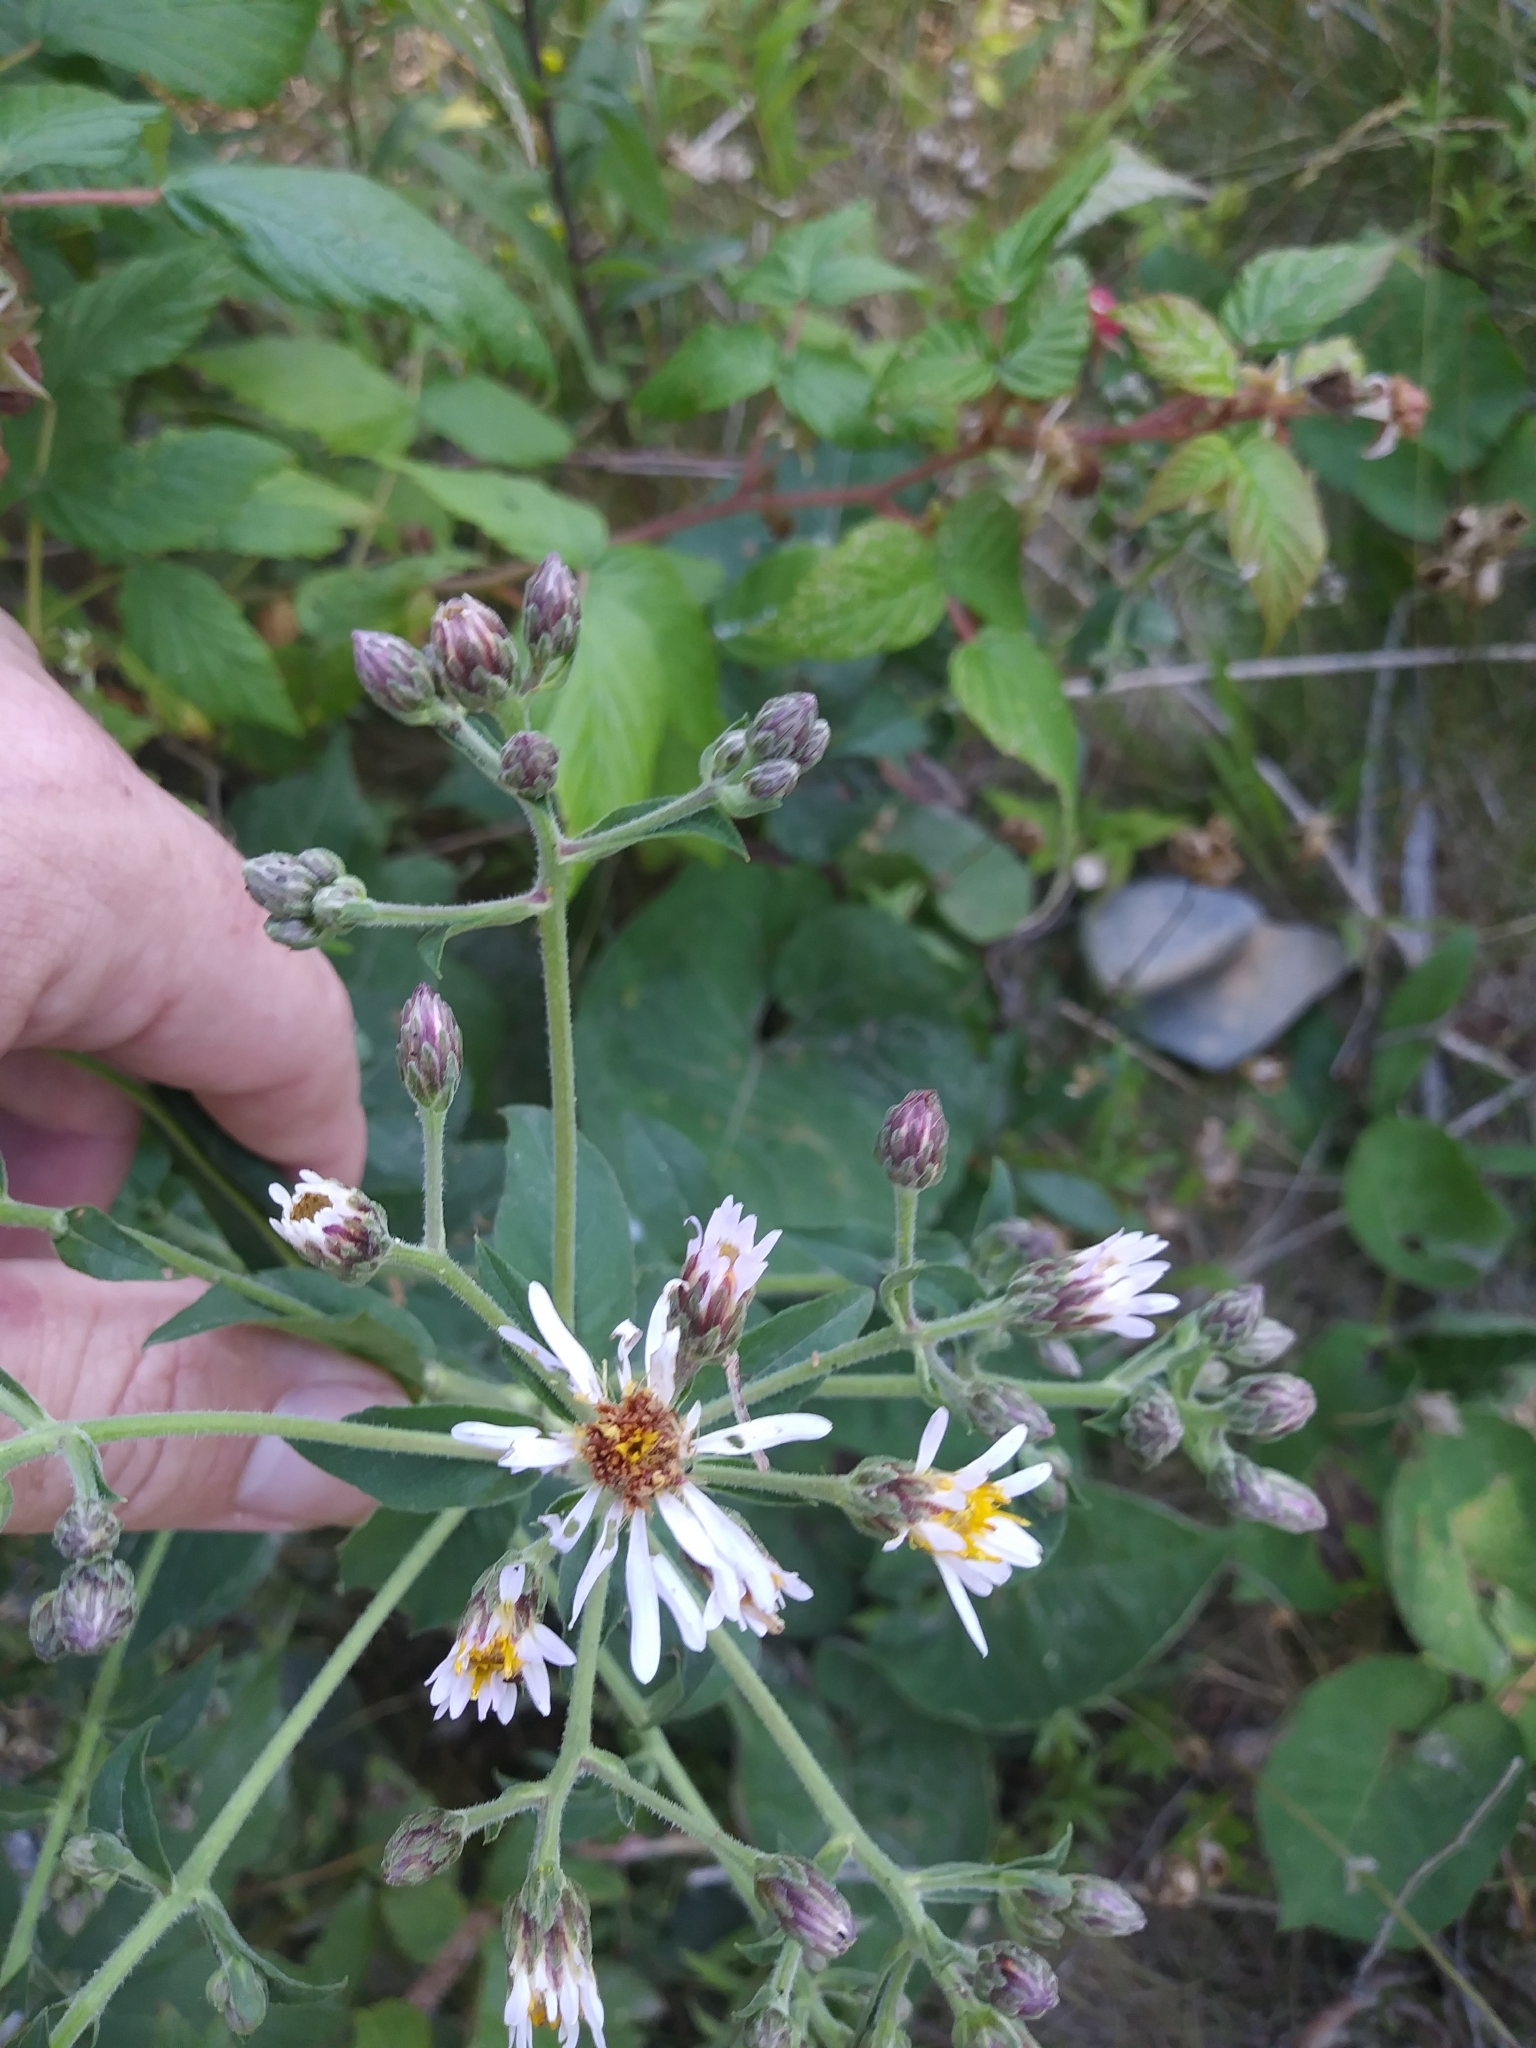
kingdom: Plantae
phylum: Tracheophyta
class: Magnoliopsida
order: Asterales
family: Asteraceae
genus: Eurybia
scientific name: Eurybia macrophylla
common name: Big-leaved aster
